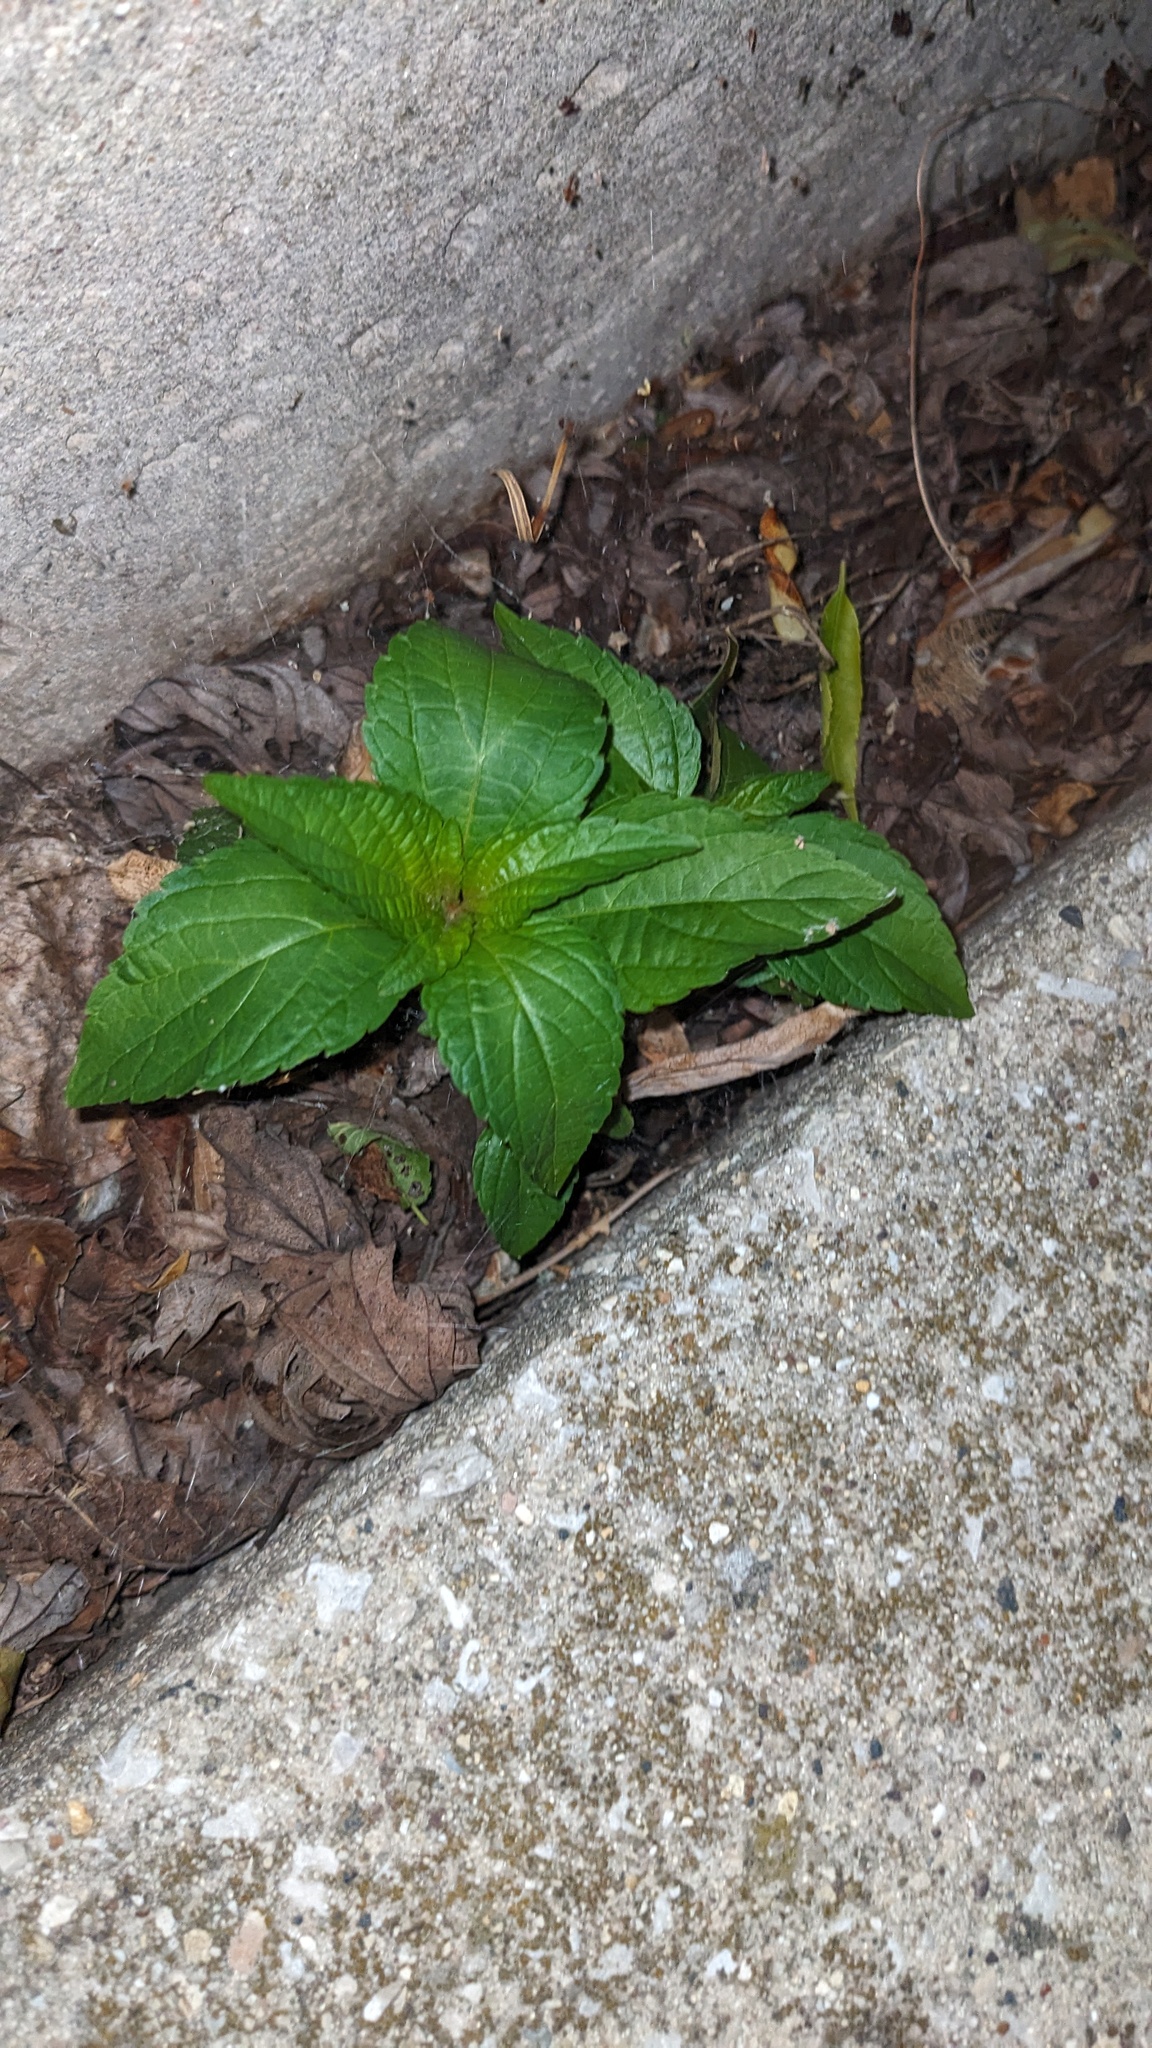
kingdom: Plantae
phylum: Tracheophyta
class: Magnoliopsida
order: Malpighiales
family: Euphorbiaceae
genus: Acalypha
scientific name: Acalypha rhomboidea
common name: Rhombic copperleaf
